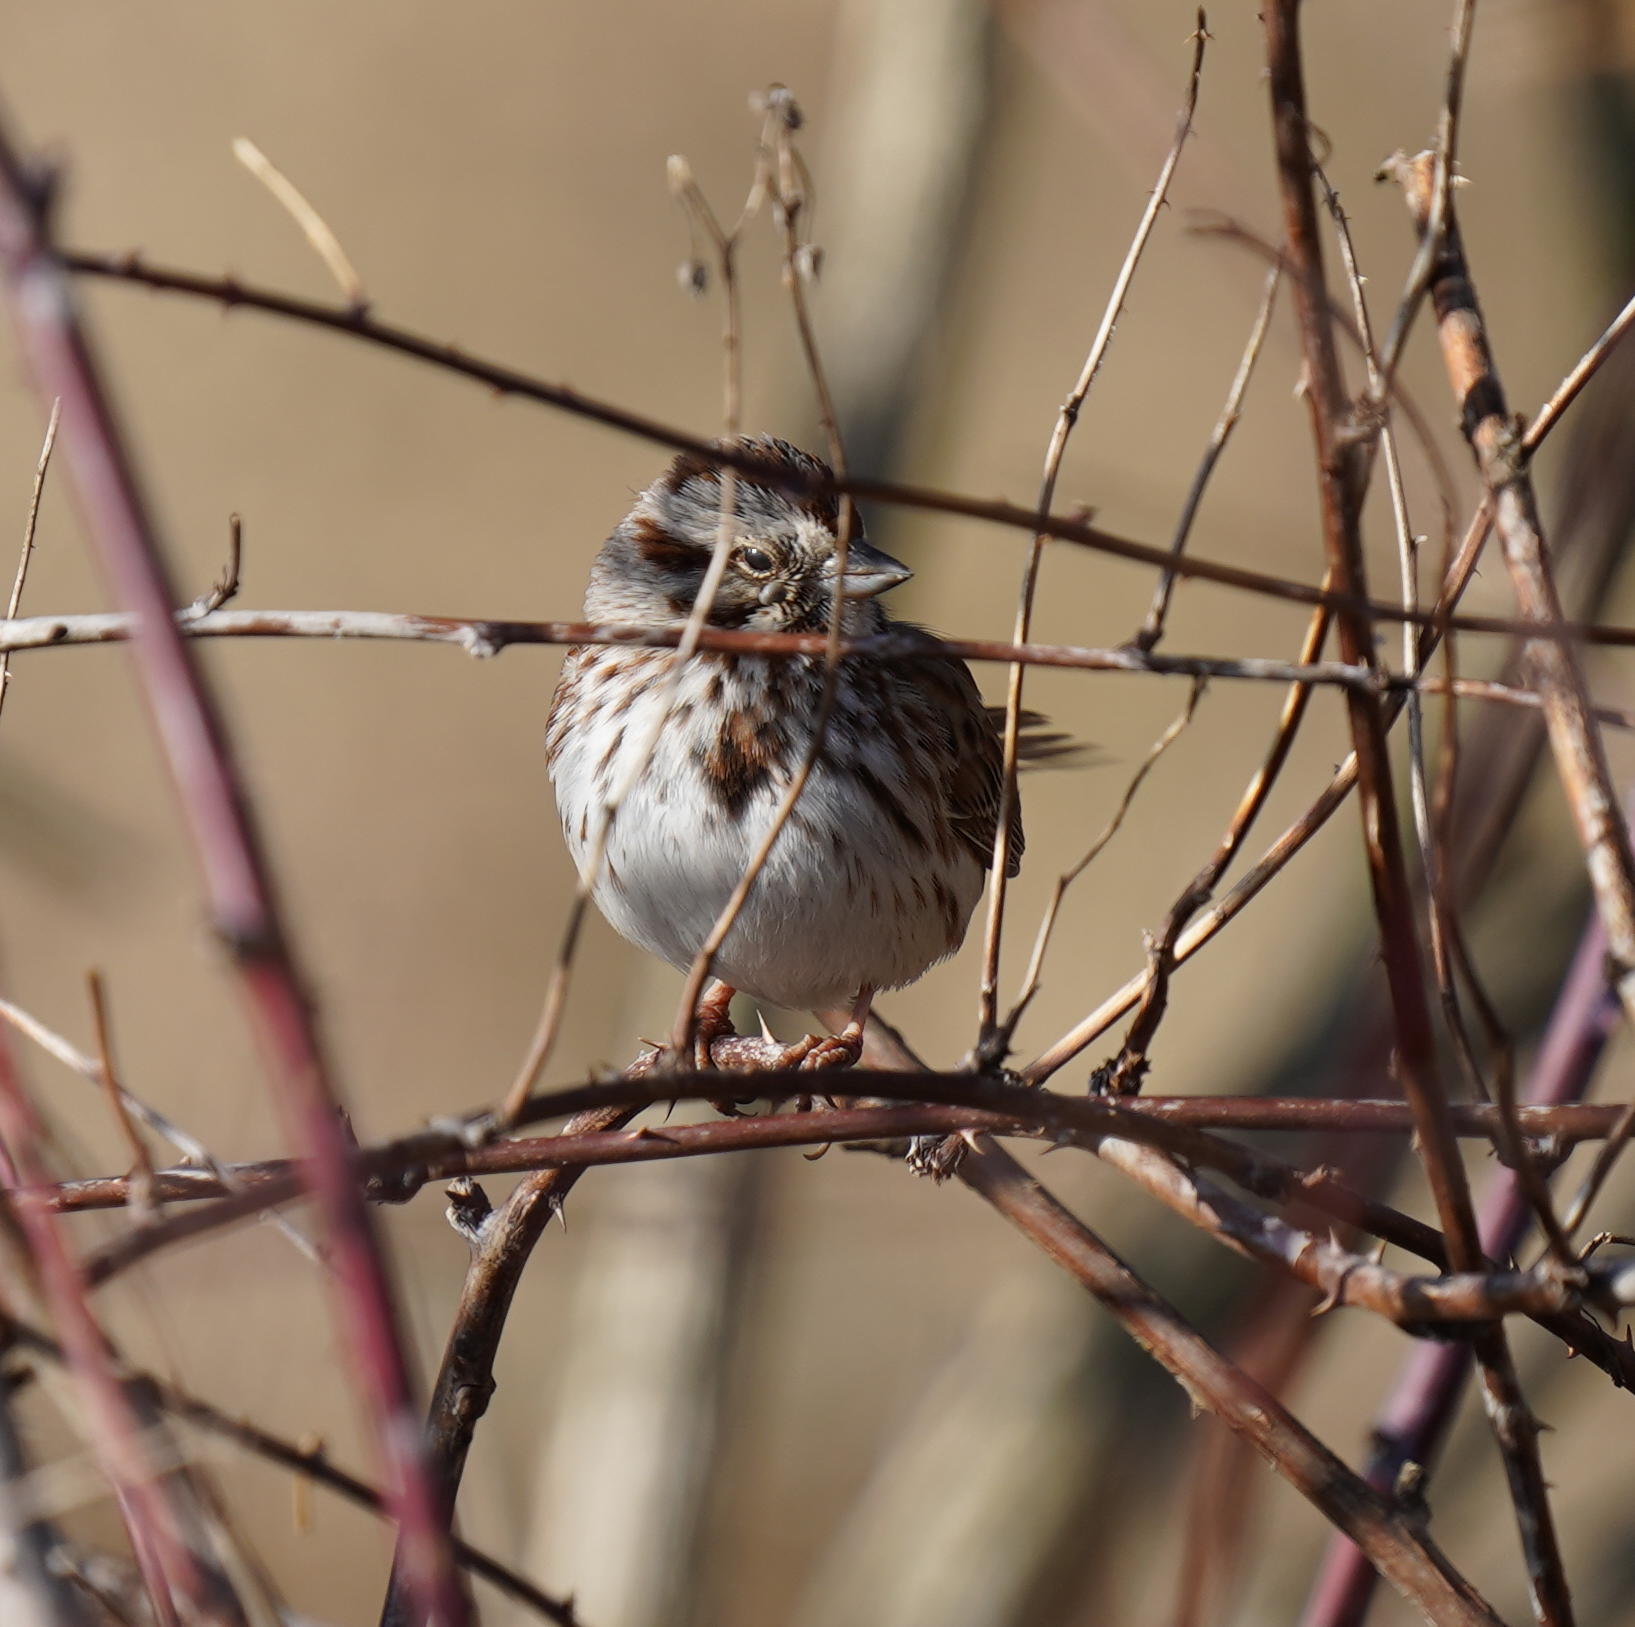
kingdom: Animalia
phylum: Chordata
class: Aves
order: Passeriformes
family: Passerellidae
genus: Melospiza
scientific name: Melospiza melodia
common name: Song sparrow
